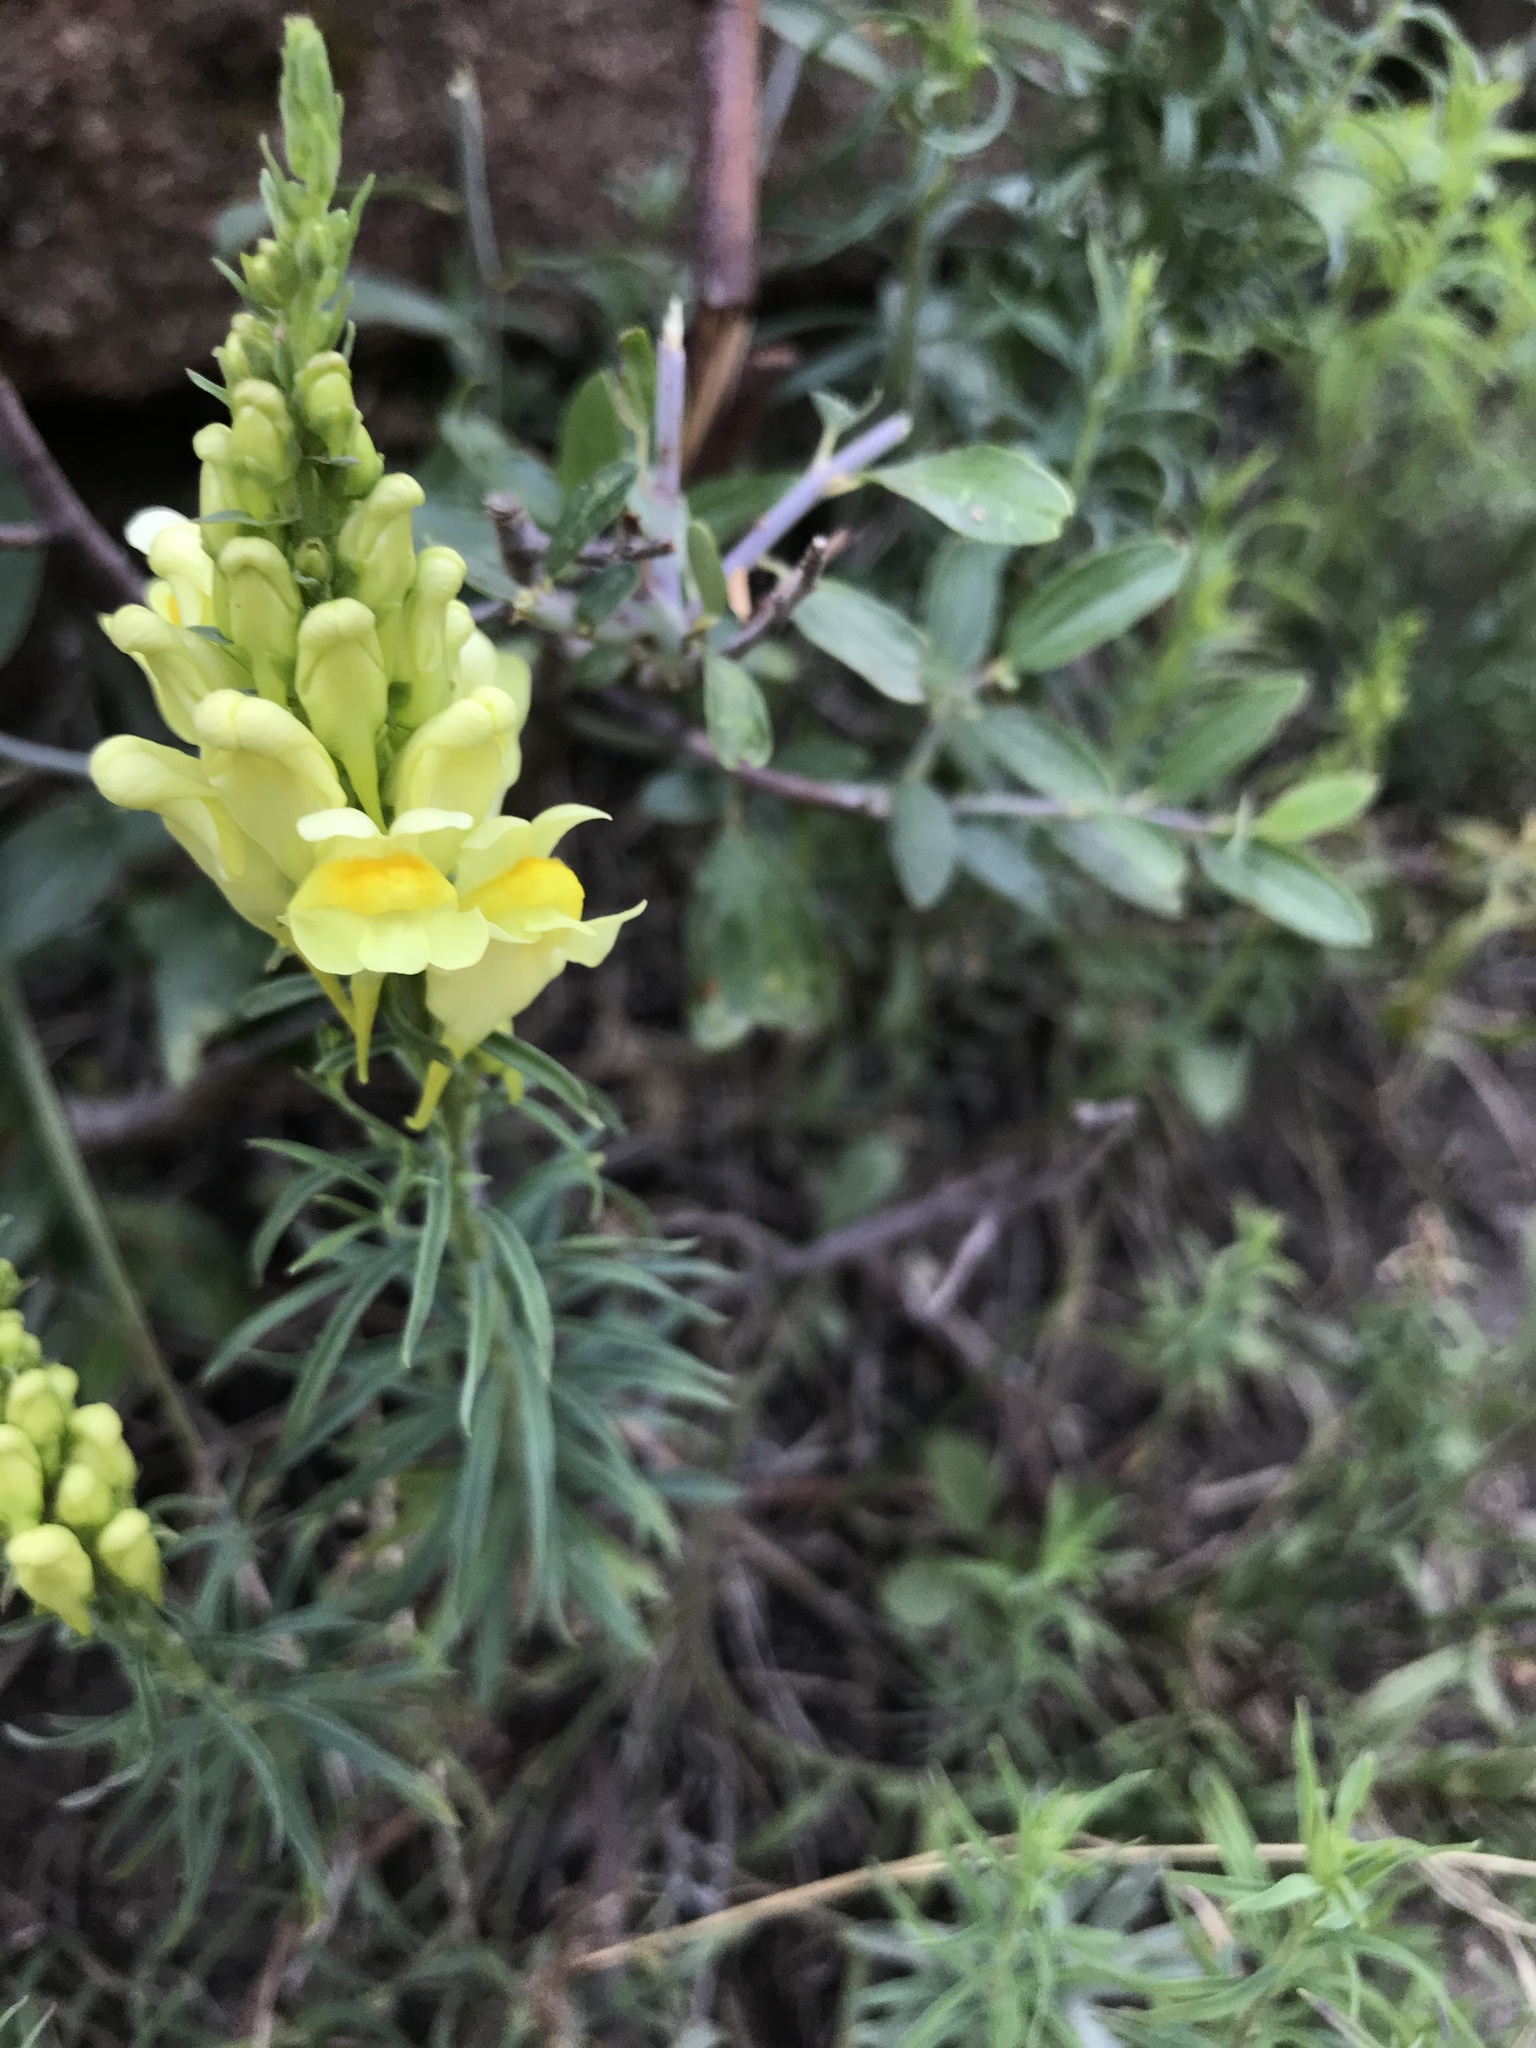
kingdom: Plantae
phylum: Tracheophyta
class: Magnoliopsida
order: Lamiales
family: Plantaginaceae
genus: Linaria
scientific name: Linaria vulgaris
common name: Butter and eggs
